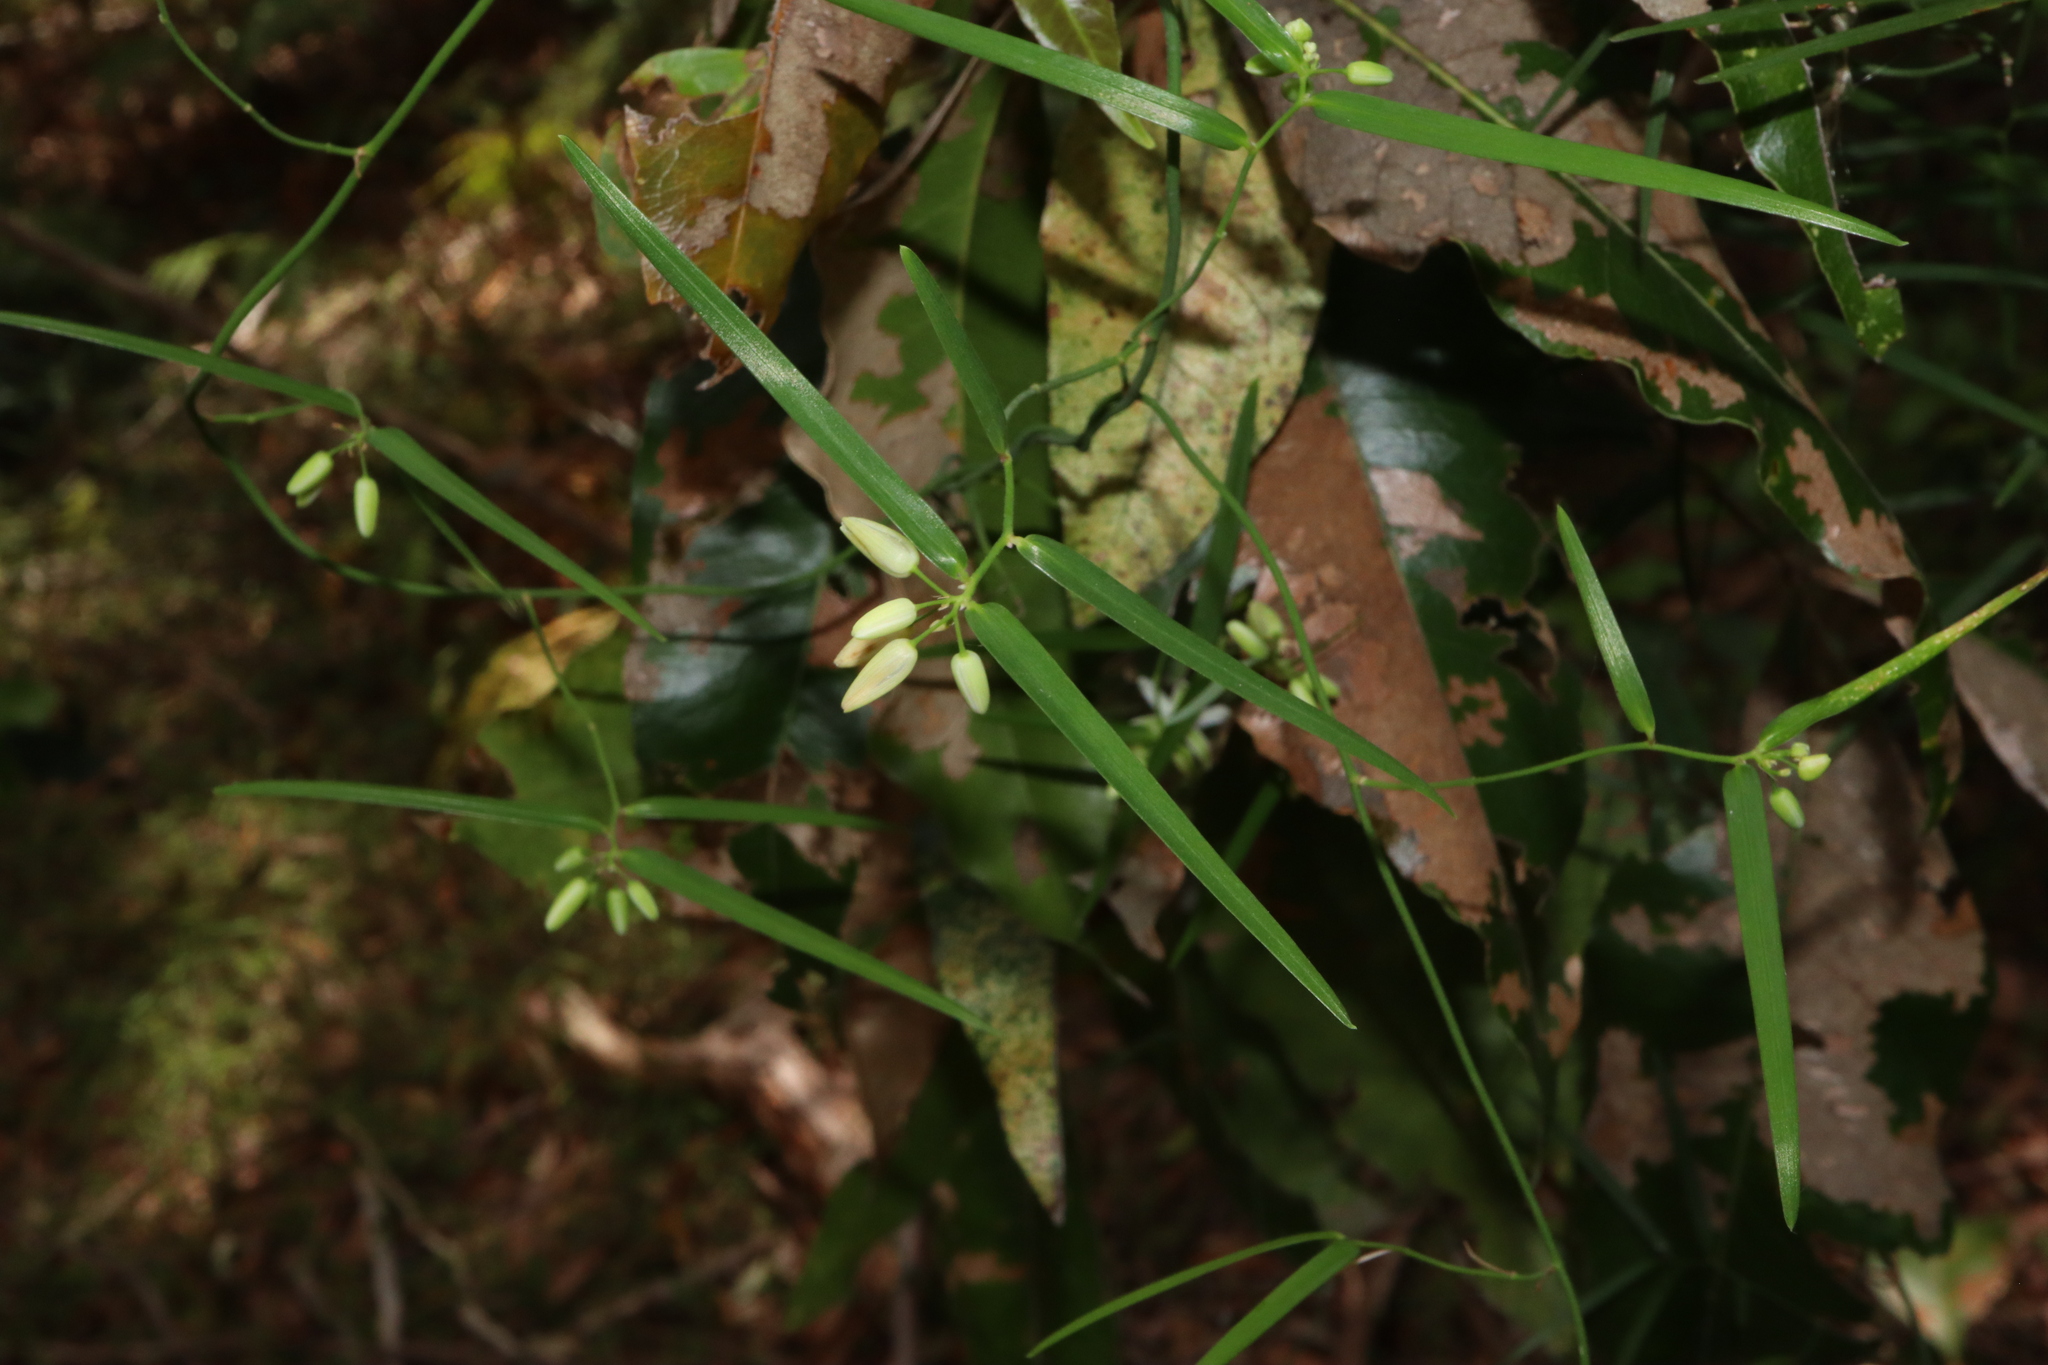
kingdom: Plantae
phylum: Tracheophyta
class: Liliopsida
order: Asparagales
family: Asphodelaceae
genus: Geitonoplesium
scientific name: Geitonoplesium cymosum
